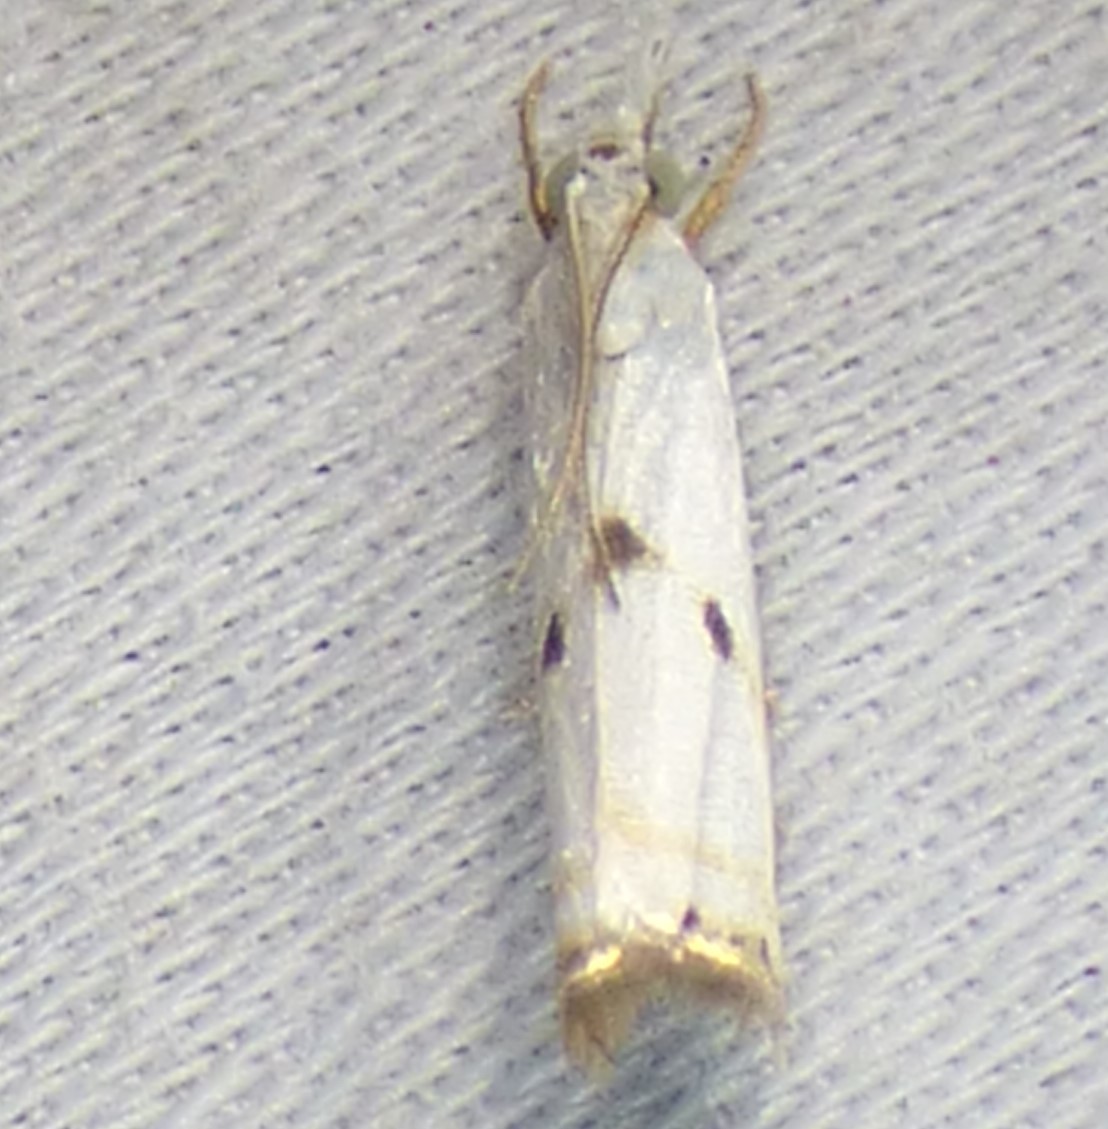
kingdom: Animalia
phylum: Arthropoda
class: Insecta
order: Lepidoptera
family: Crambidae
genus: Microcrambus
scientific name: Microcrambus biguttellus
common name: Gold-stripe grass-veneer moth
